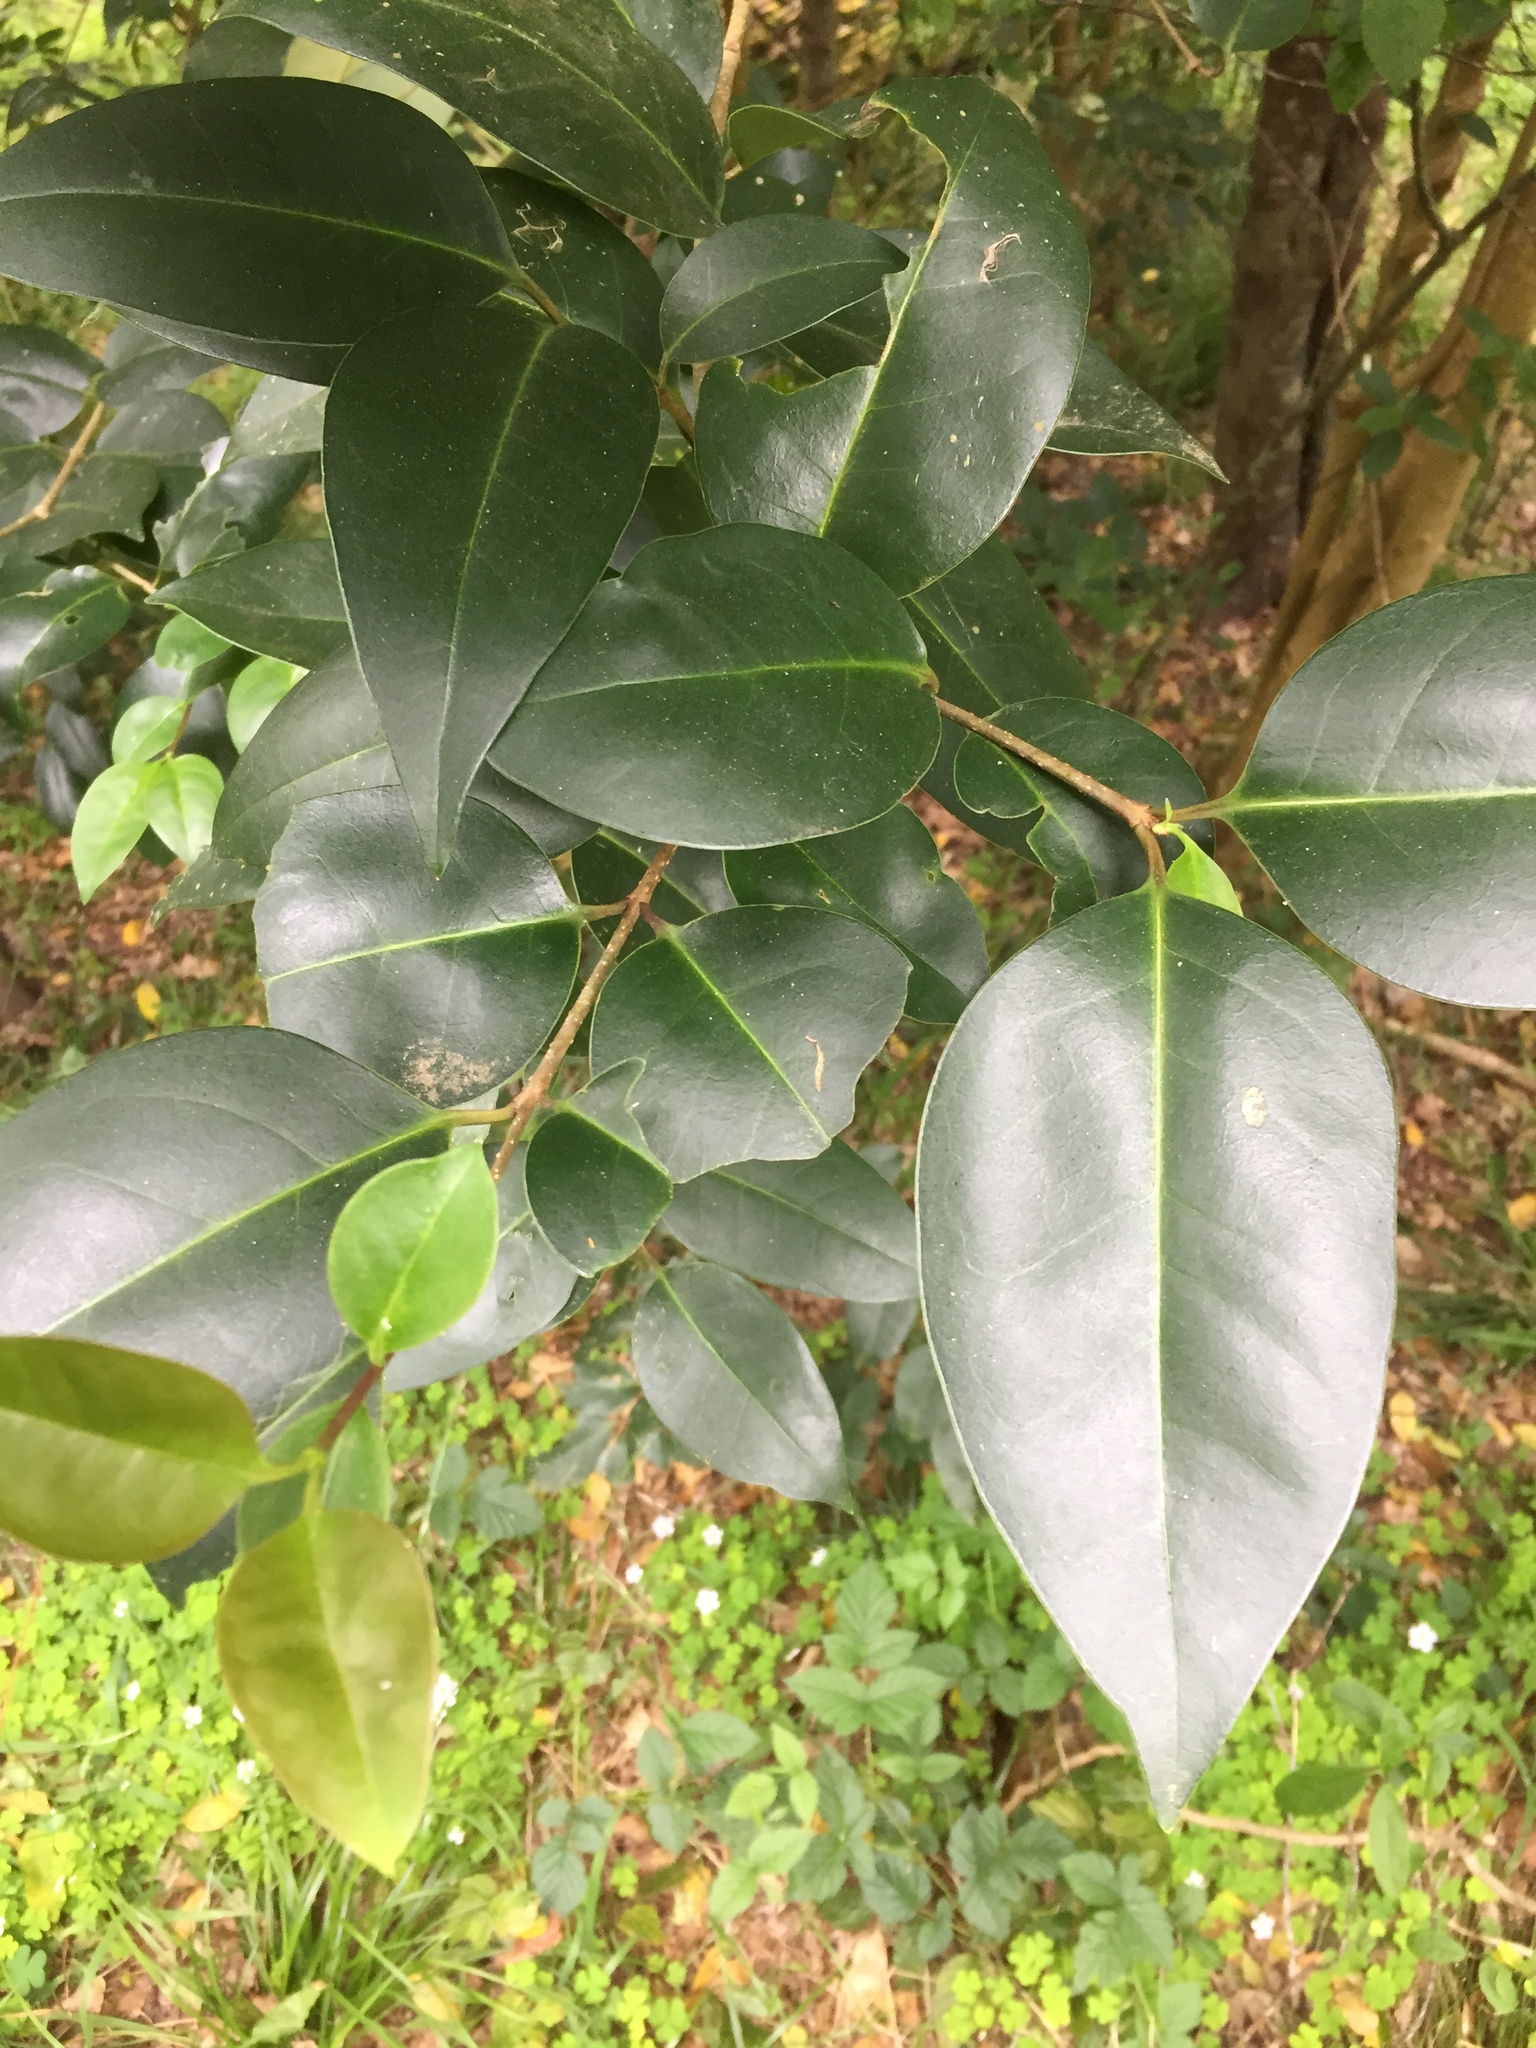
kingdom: Plantae
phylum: Tracheophyta
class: Magnoliopsida
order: Lamiales
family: Oleaceae
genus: Ligustrum
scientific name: Ligustrum lucidum
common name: Glossy privet
